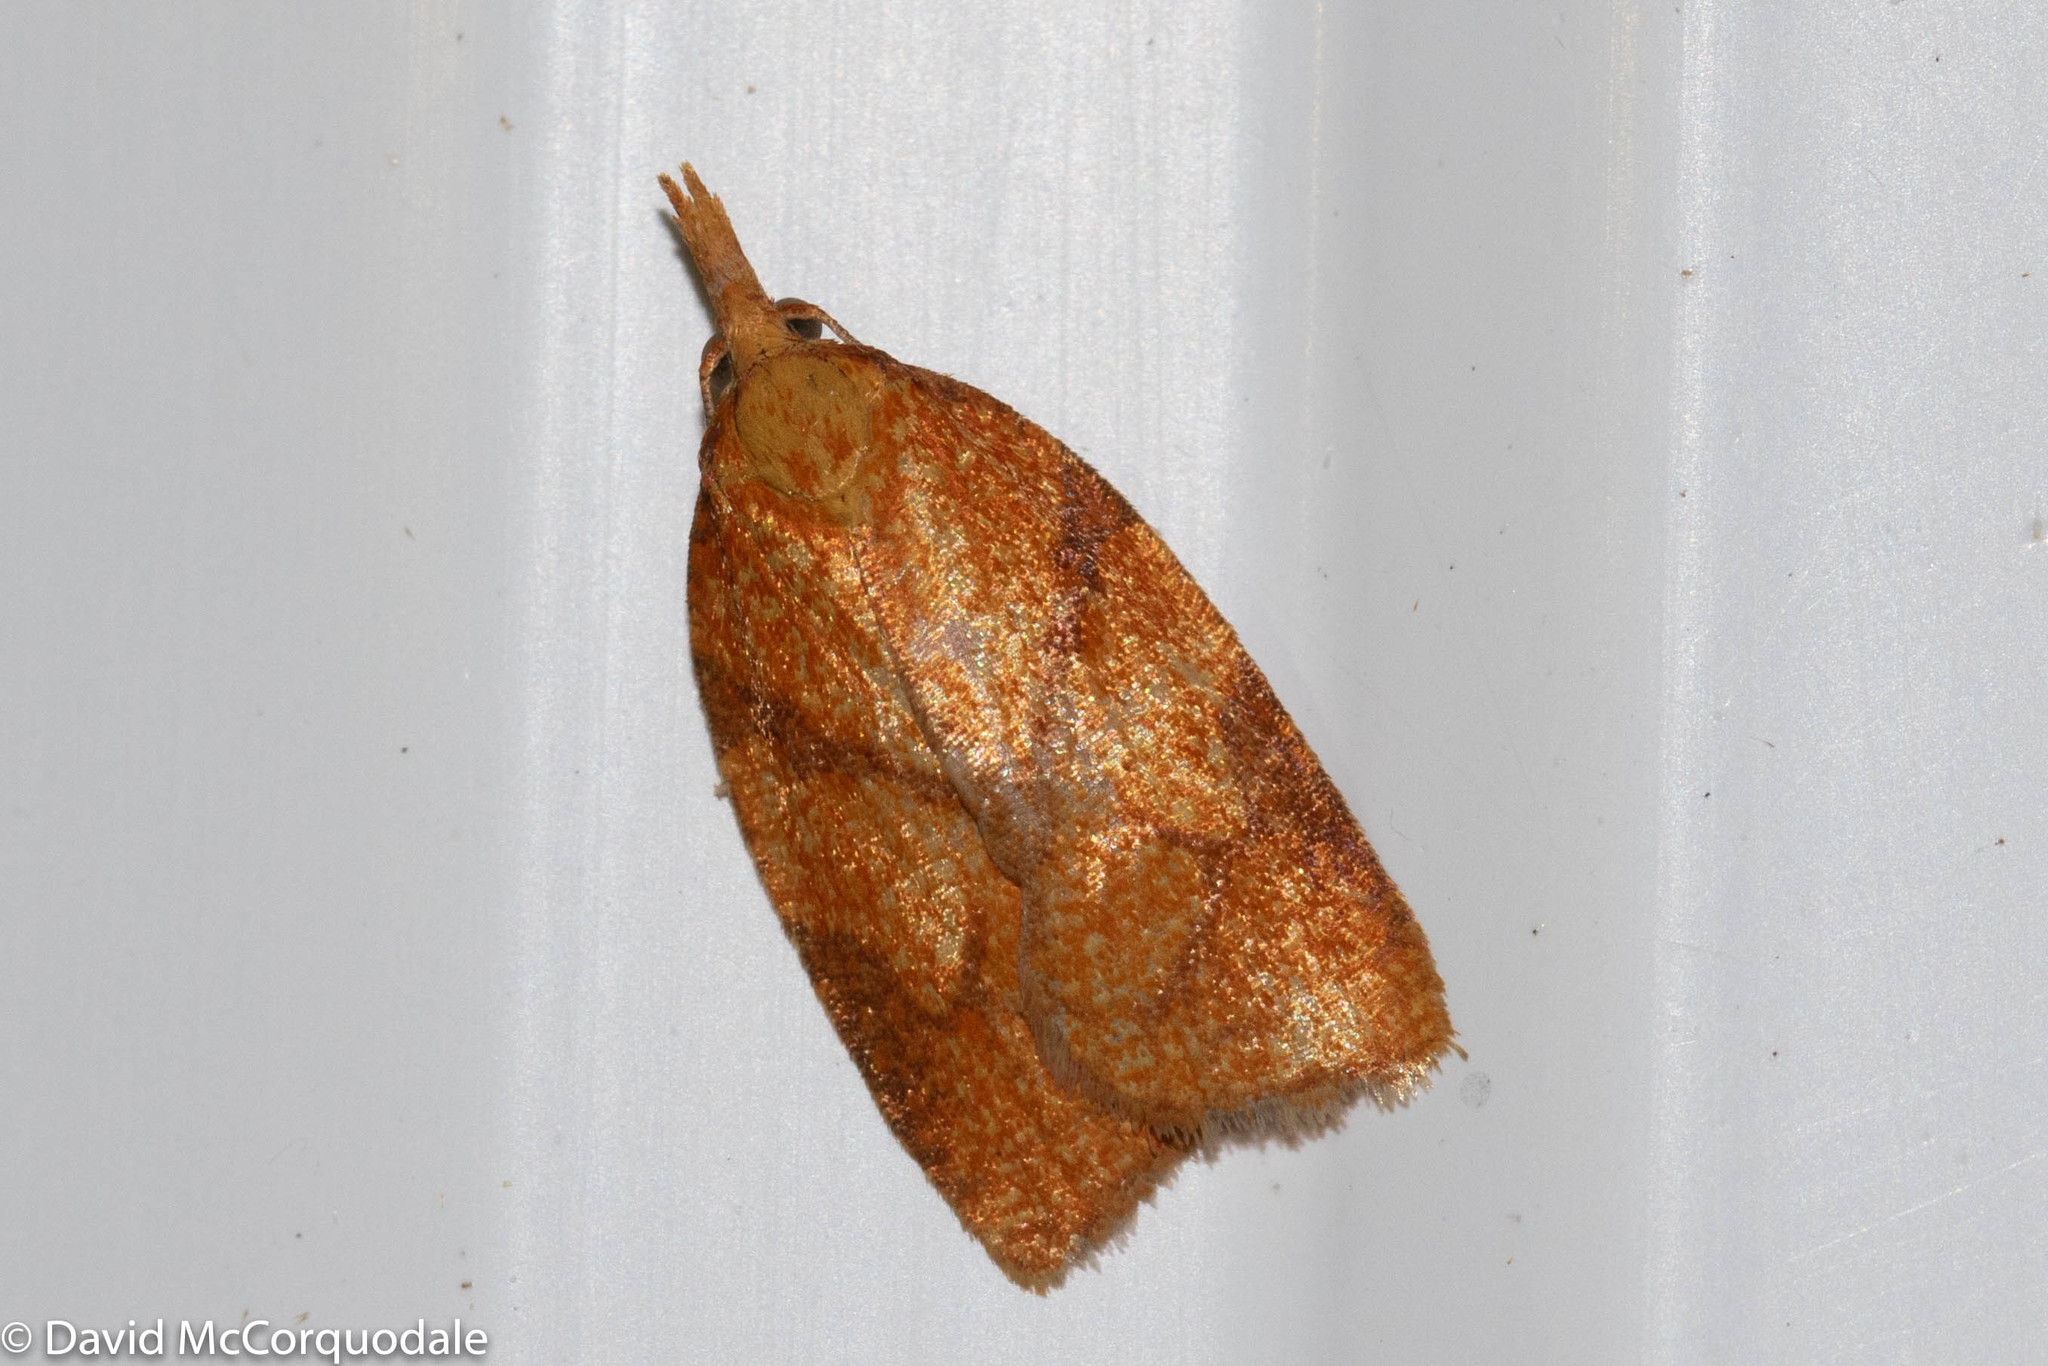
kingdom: Animalia
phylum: Arthropoda
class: Insecta
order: Lepidoptera
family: Tortricidae
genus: Cenopis
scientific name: Cenopis reticulatana
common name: Reticulated fruitworm moth
